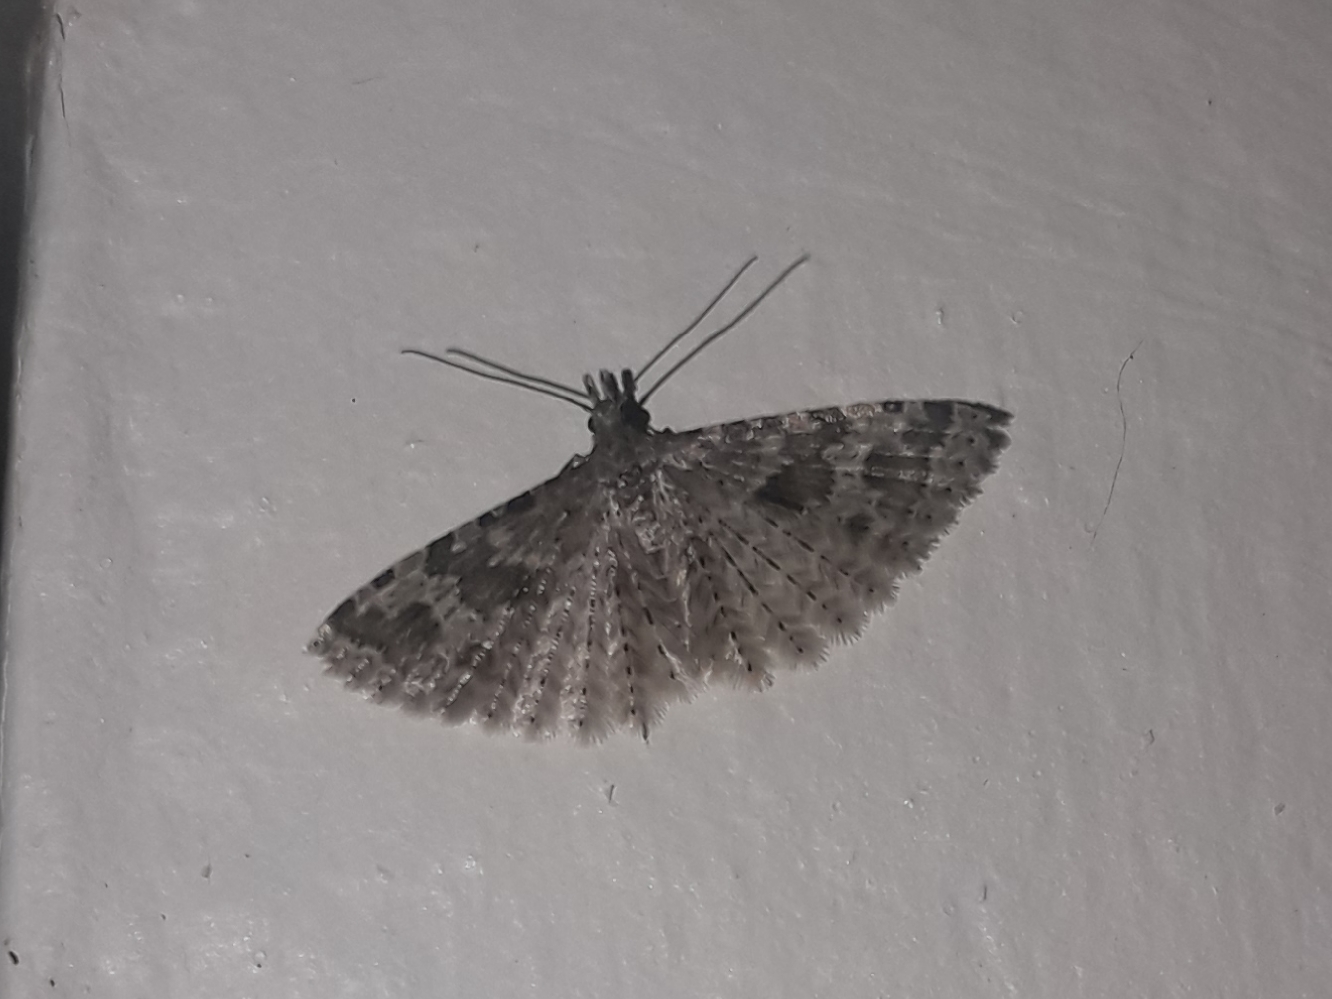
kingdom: Animalia
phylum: Arthropoda
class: Insecta
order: Lepidoptera
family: Alucitidae
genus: Alucita
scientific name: Alucita hexadactyla
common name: Twenty-plume moth
